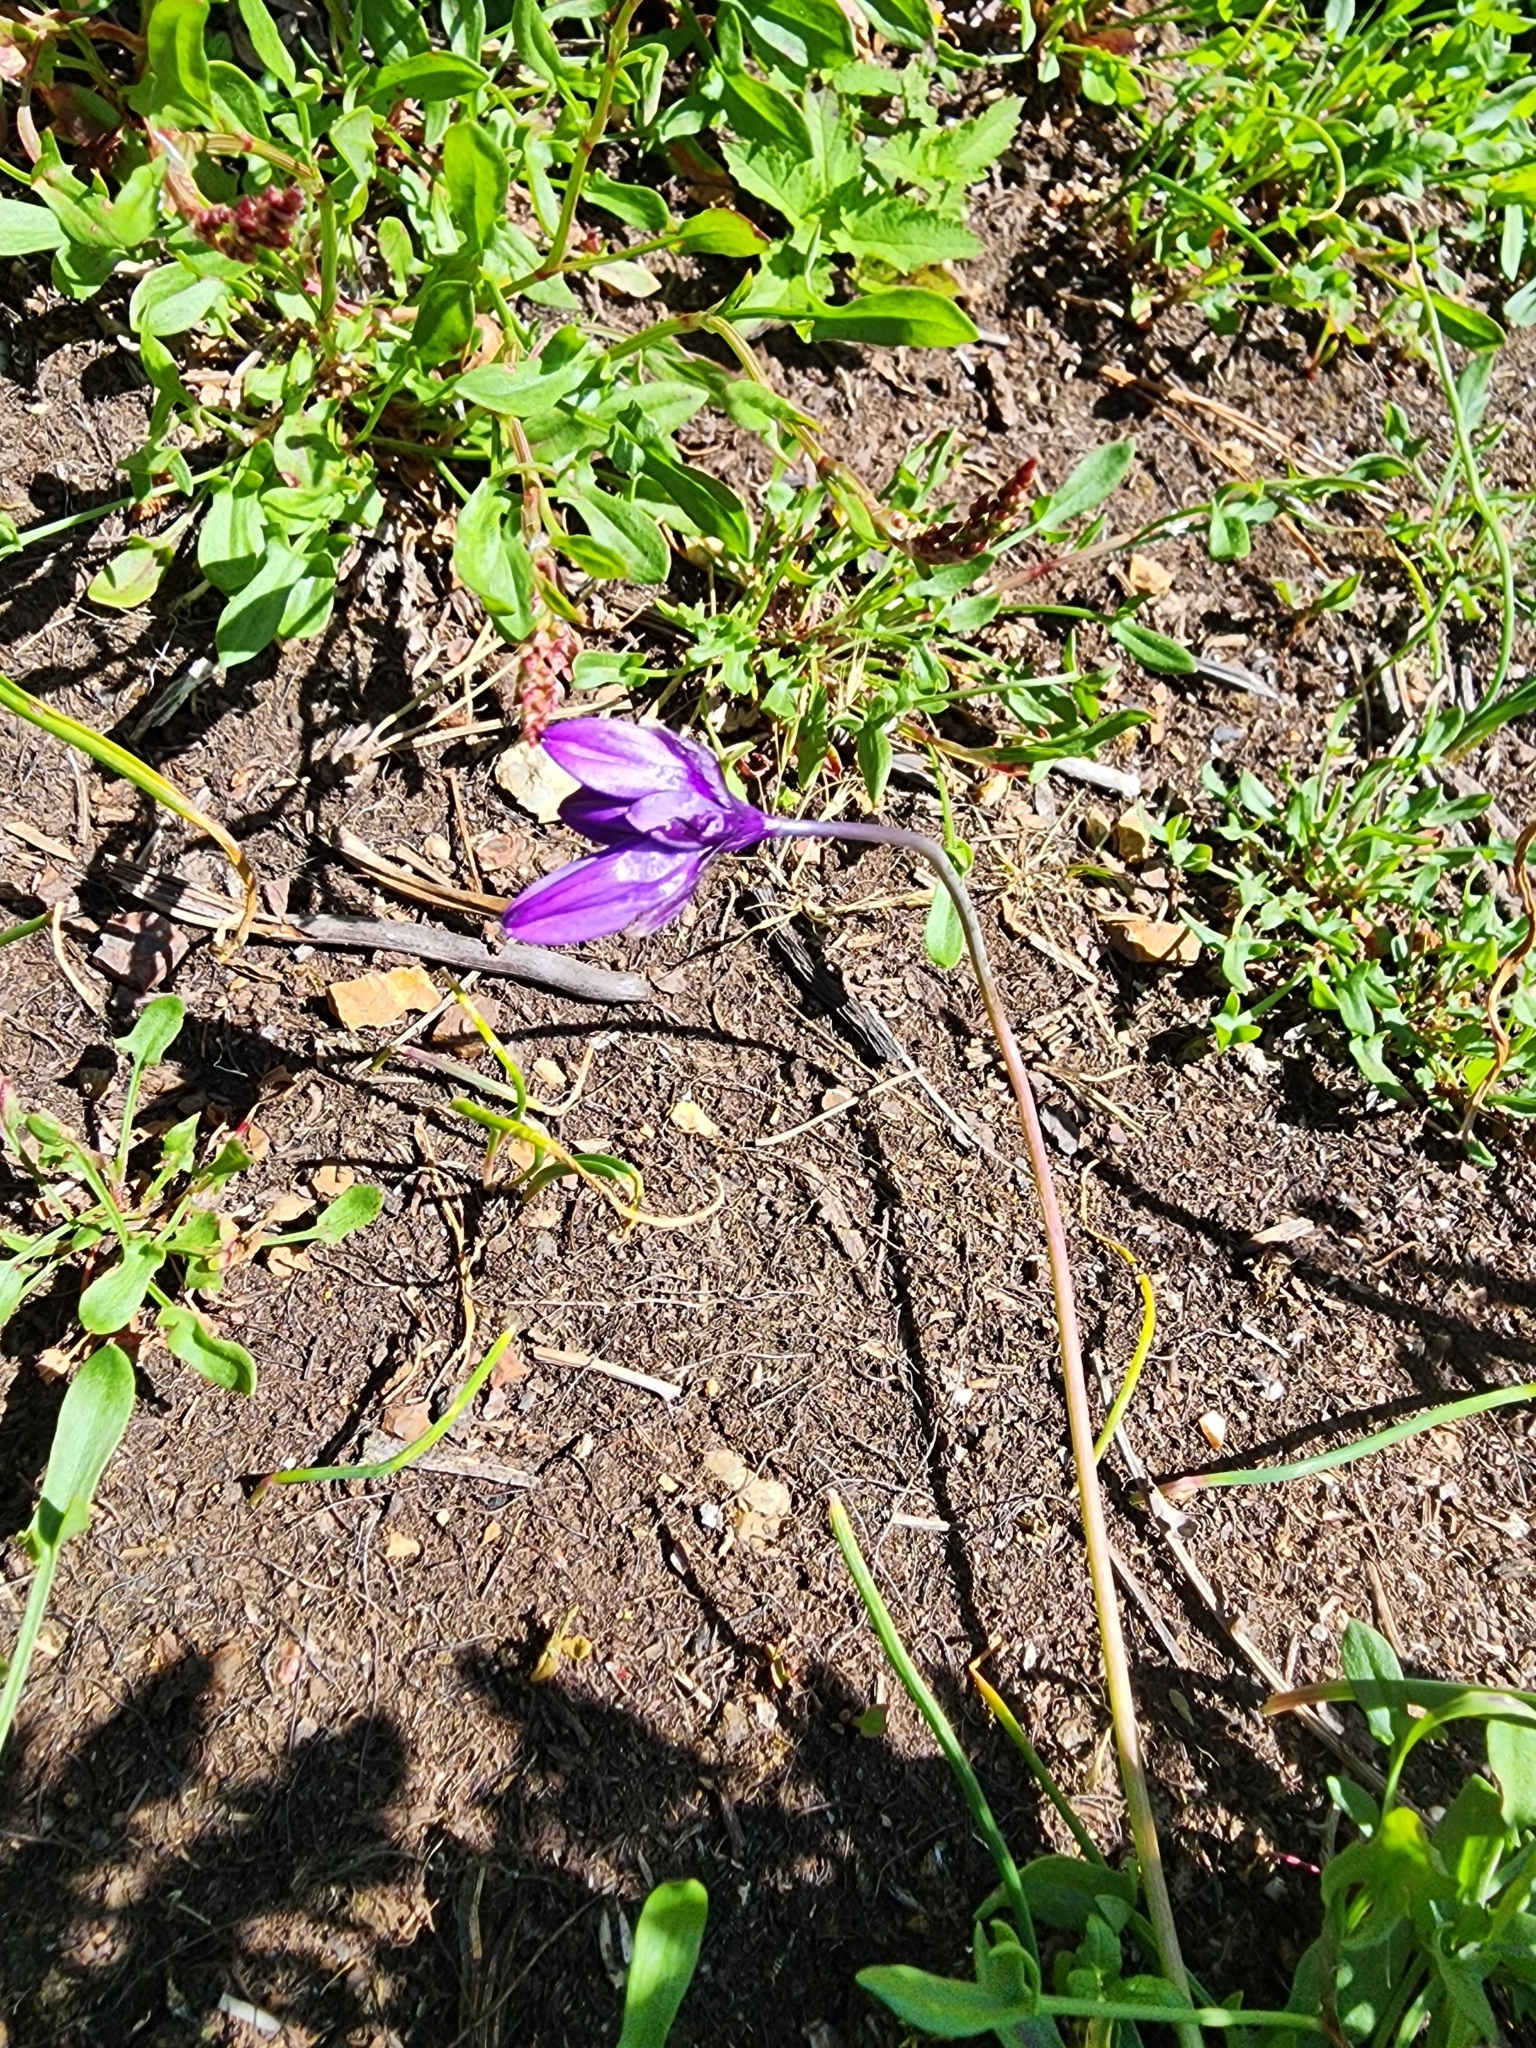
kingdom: Plantae
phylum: Tracheophyta
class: Liliopsida
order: Asparagales
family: Asparagaceae
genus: Dipterostemon
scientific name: Dipterostemon capitatus
